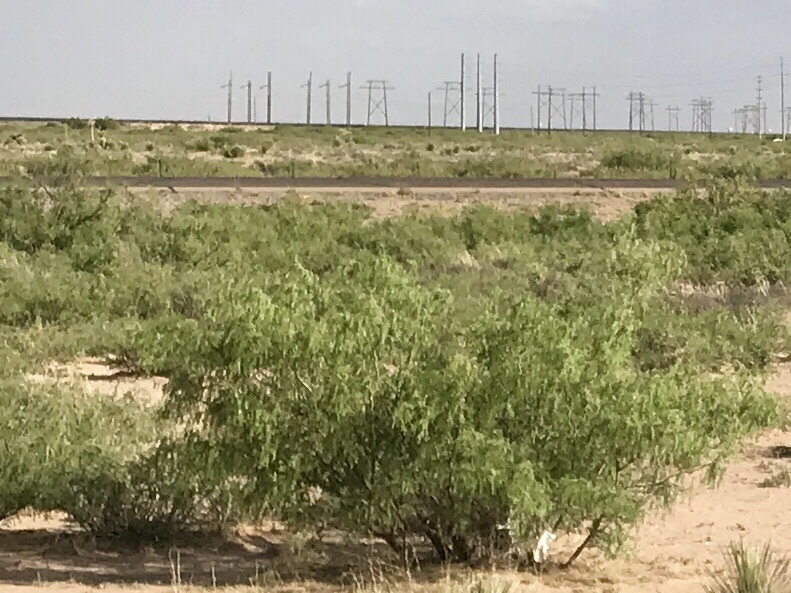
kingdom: Plantae
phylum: Tracheophyta
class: Magnoliopsida
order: Fabales
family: Fabaceae
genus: Prosopis
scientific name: Prosopis glandulosa
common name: Honey mesquite
